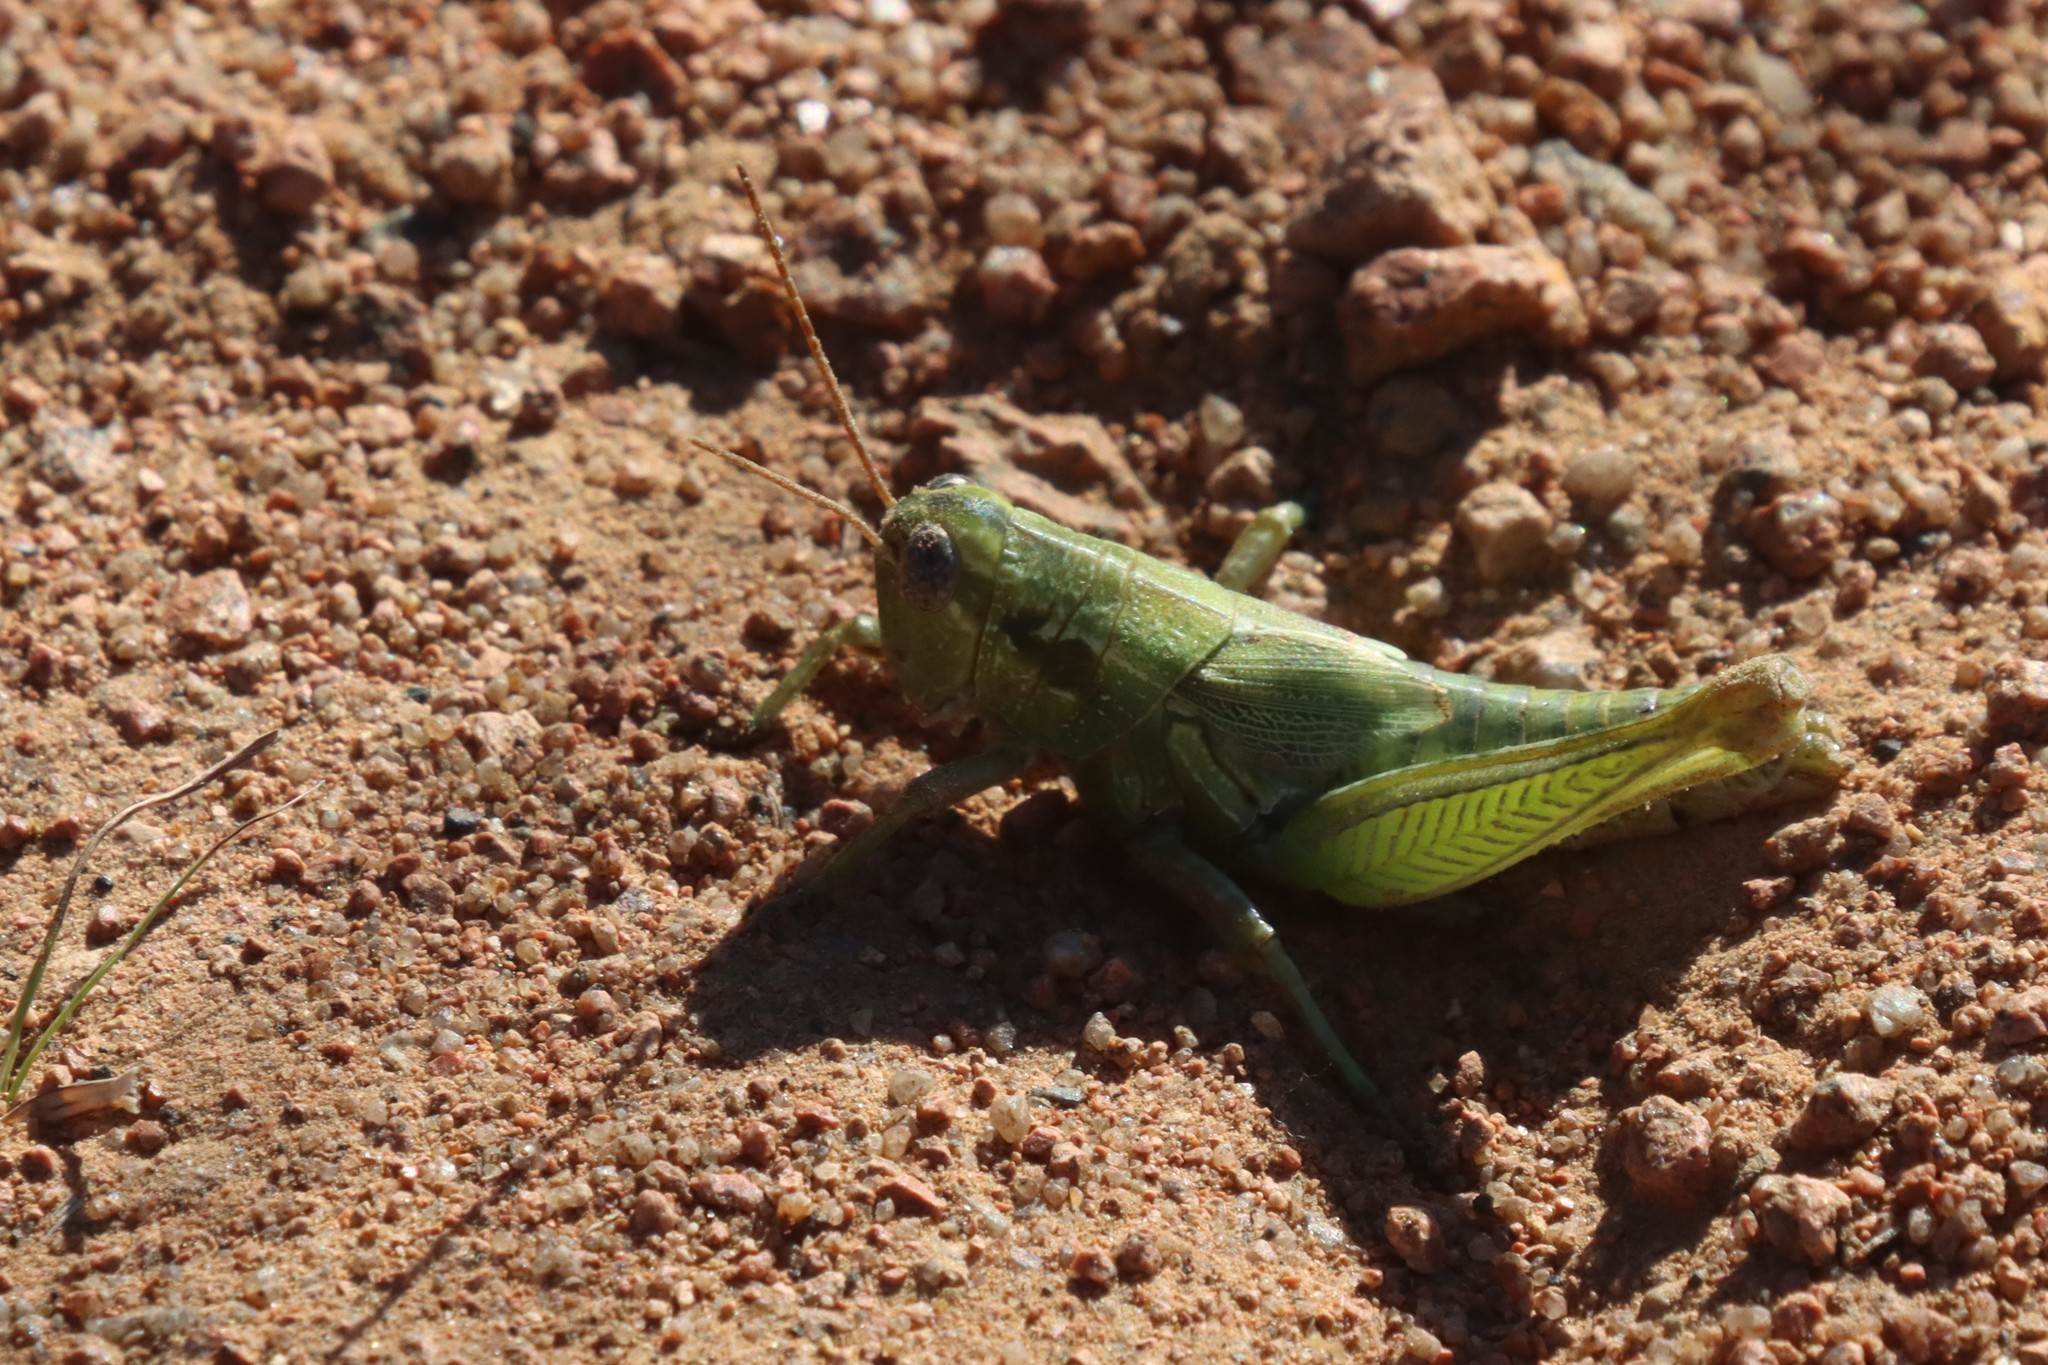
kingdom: Animalia
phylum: Arthropoda
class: Insecta
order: Orthoptera
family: Acrididae
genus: Campylacantha
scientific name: Campylacantha olivacea
